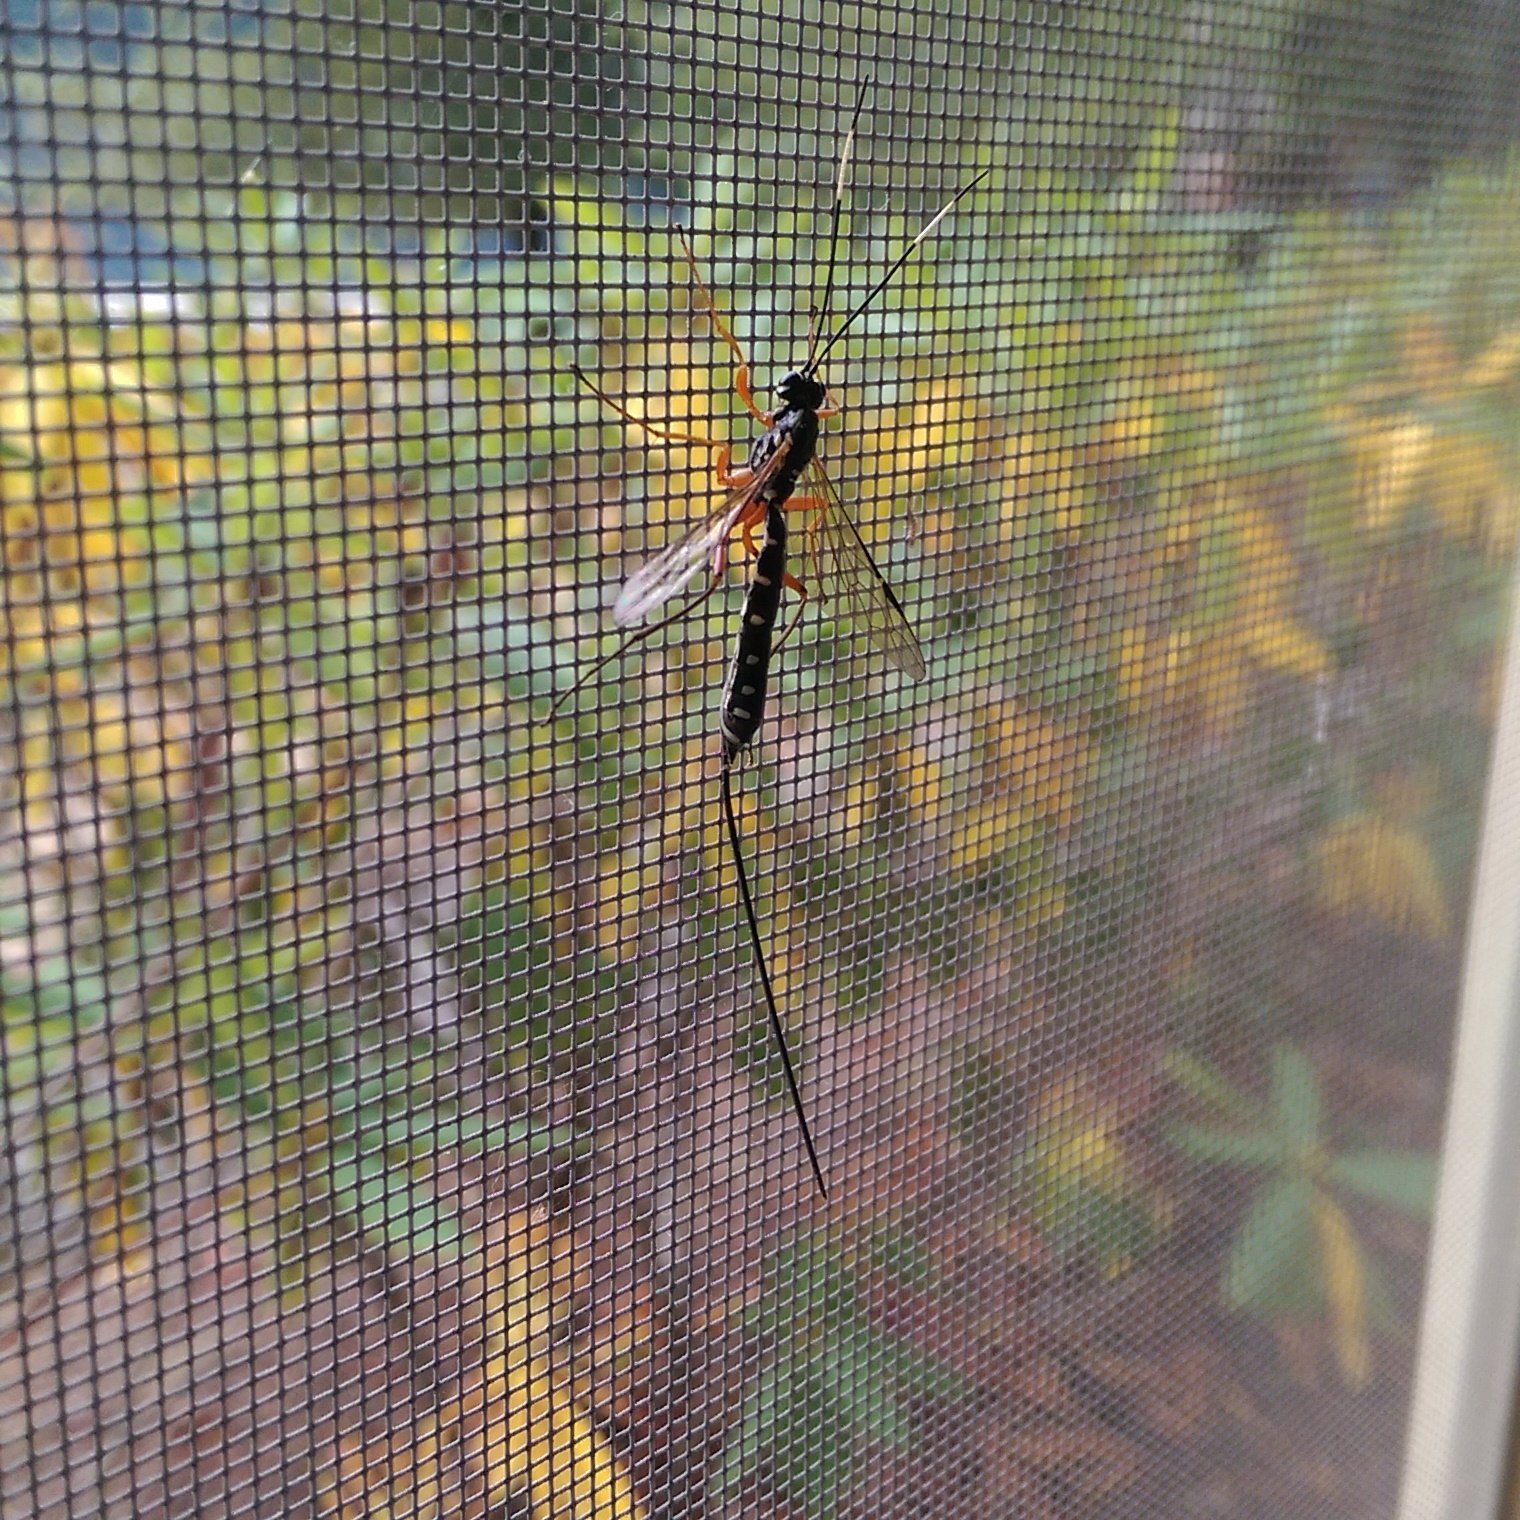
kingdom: Animalia
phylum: Arthropoda
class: Insecta
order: Hymenoptera
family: Ichneumonidae
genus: Rhyssa
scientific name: Rhyssa lineolata
